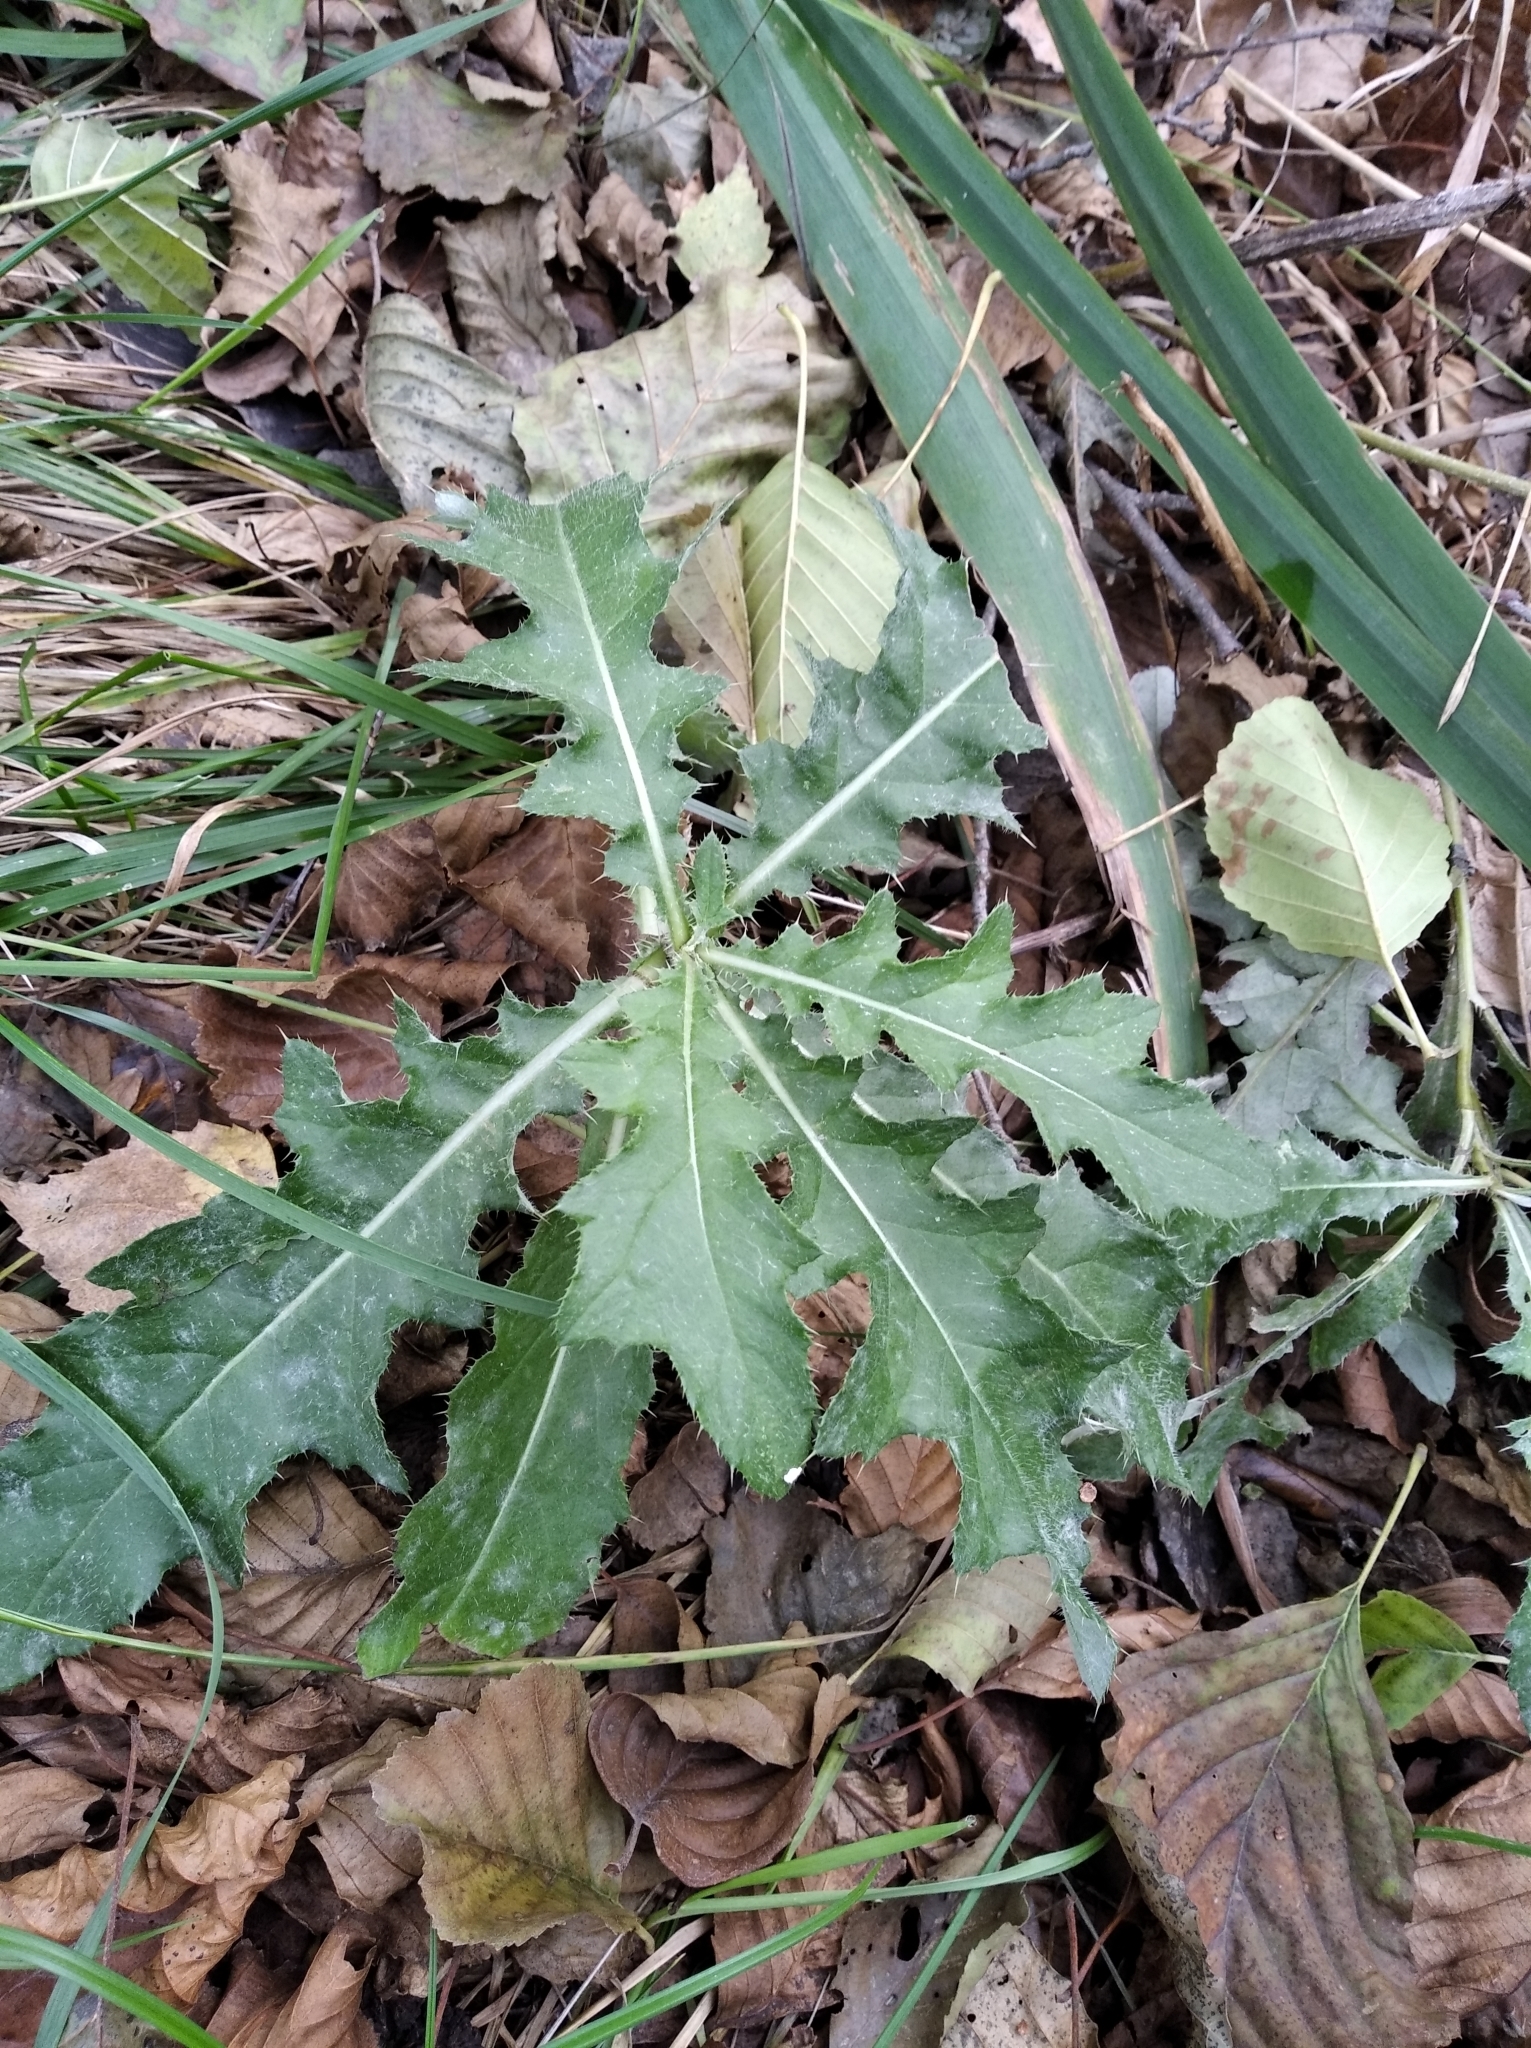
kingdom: Plantae
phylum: Tracheophyta
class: Magnoliopsida
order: Asterales
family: Asteraceae
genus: Cirsium
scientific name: Cirsium arvense
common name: Creeping thistle
